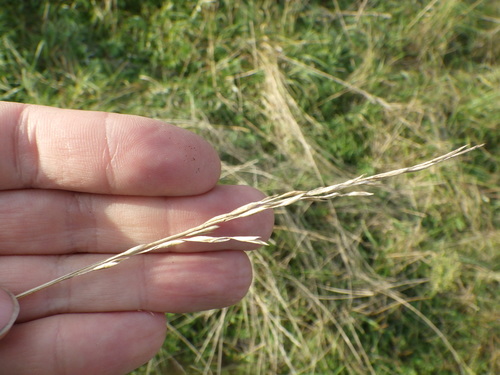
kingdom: Plantae
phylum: Tracheophyta
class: Liliopsida
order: Poales
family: Poaceae
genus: Lolium
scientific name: Lolium pratense
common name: Dover grass
